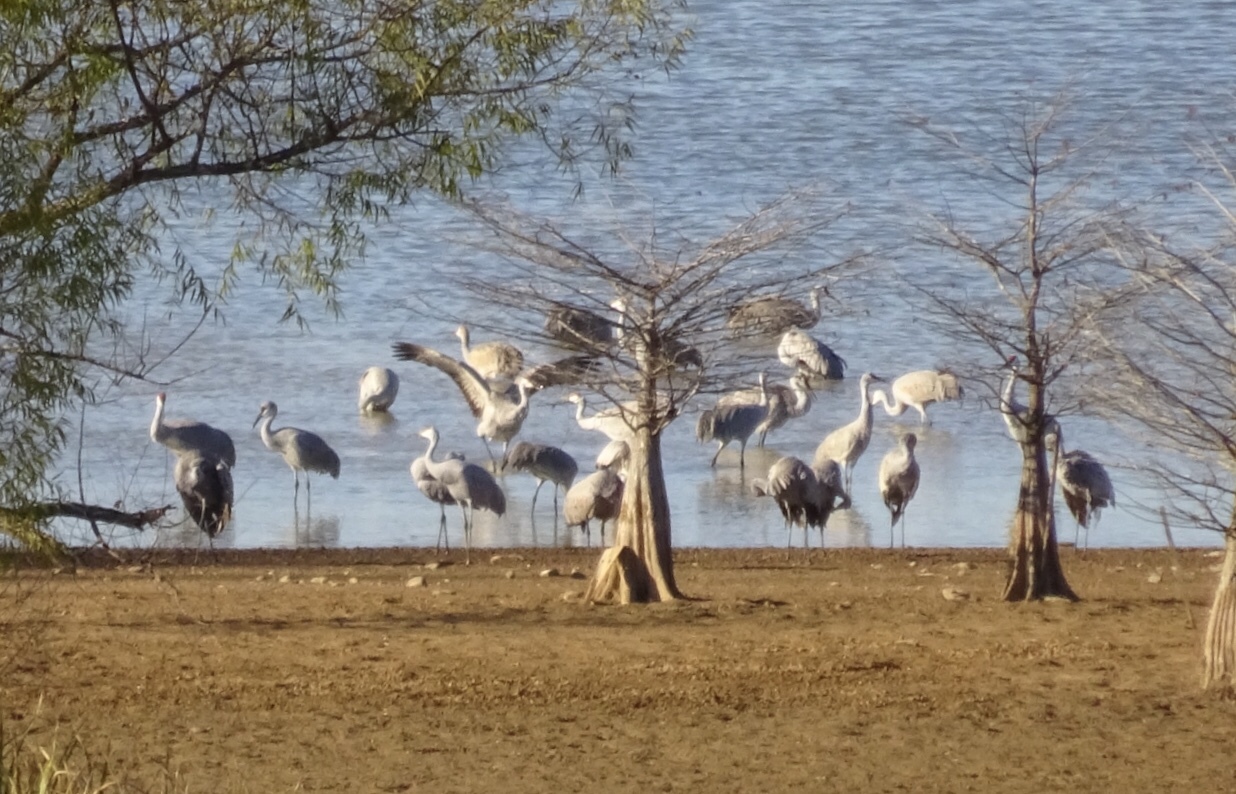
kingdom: Animalia
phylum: Chordata
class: Aves
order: Gruiformes
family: Gruidae
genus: Grus
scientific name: Grus canadensis
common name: Sandhill crane
